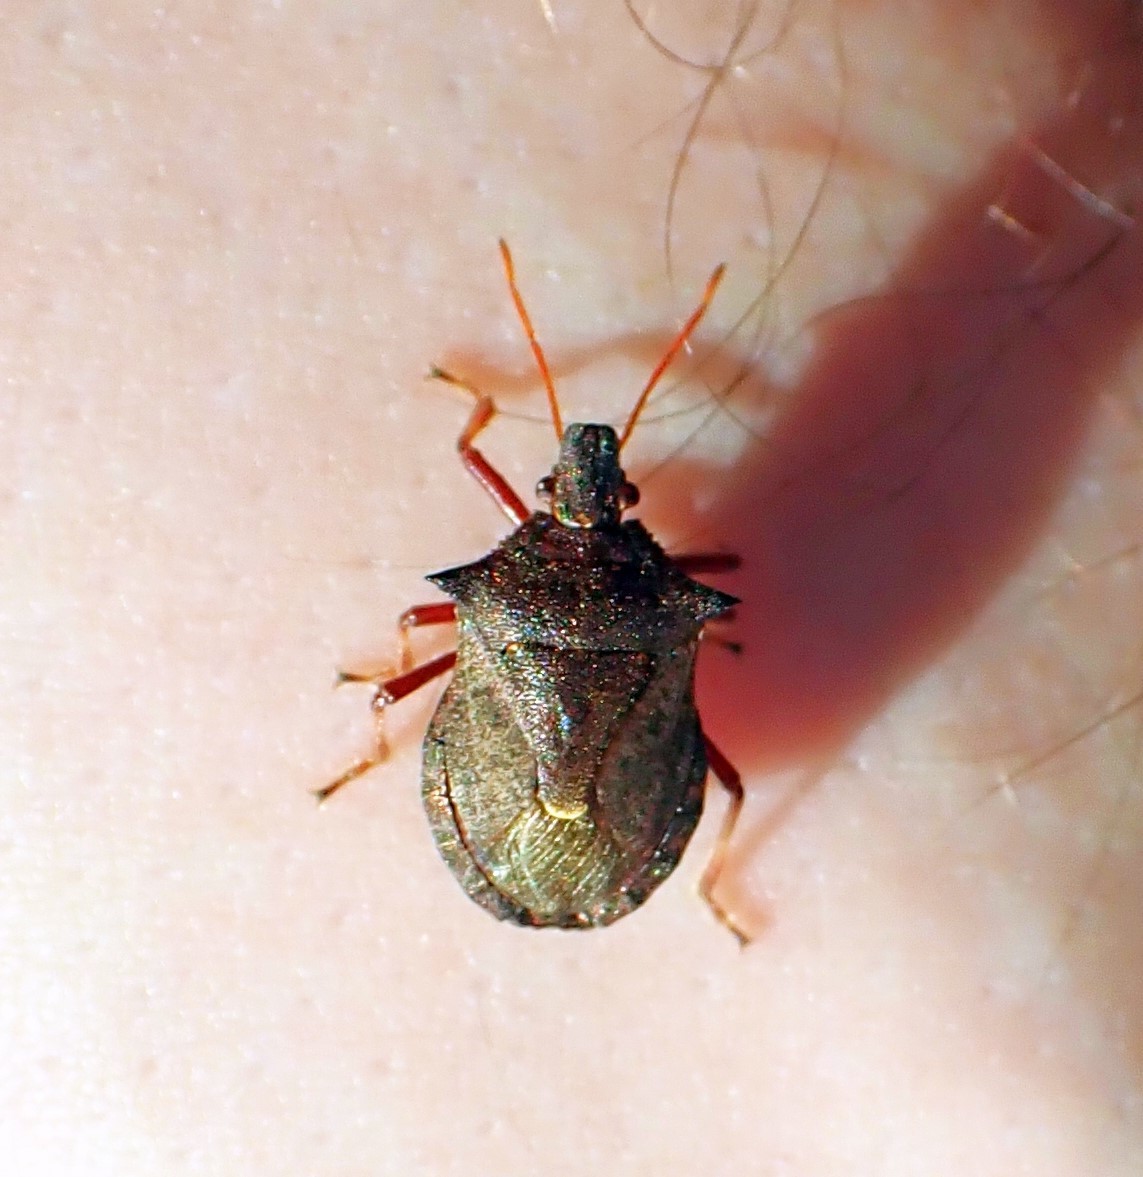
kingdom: Animalia
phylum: Arthropoda
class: Insecta
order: Hemiptera
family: Pentatomidae
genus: Picromerus
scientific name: Picromerus bidens
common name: Spiked shieldbug
